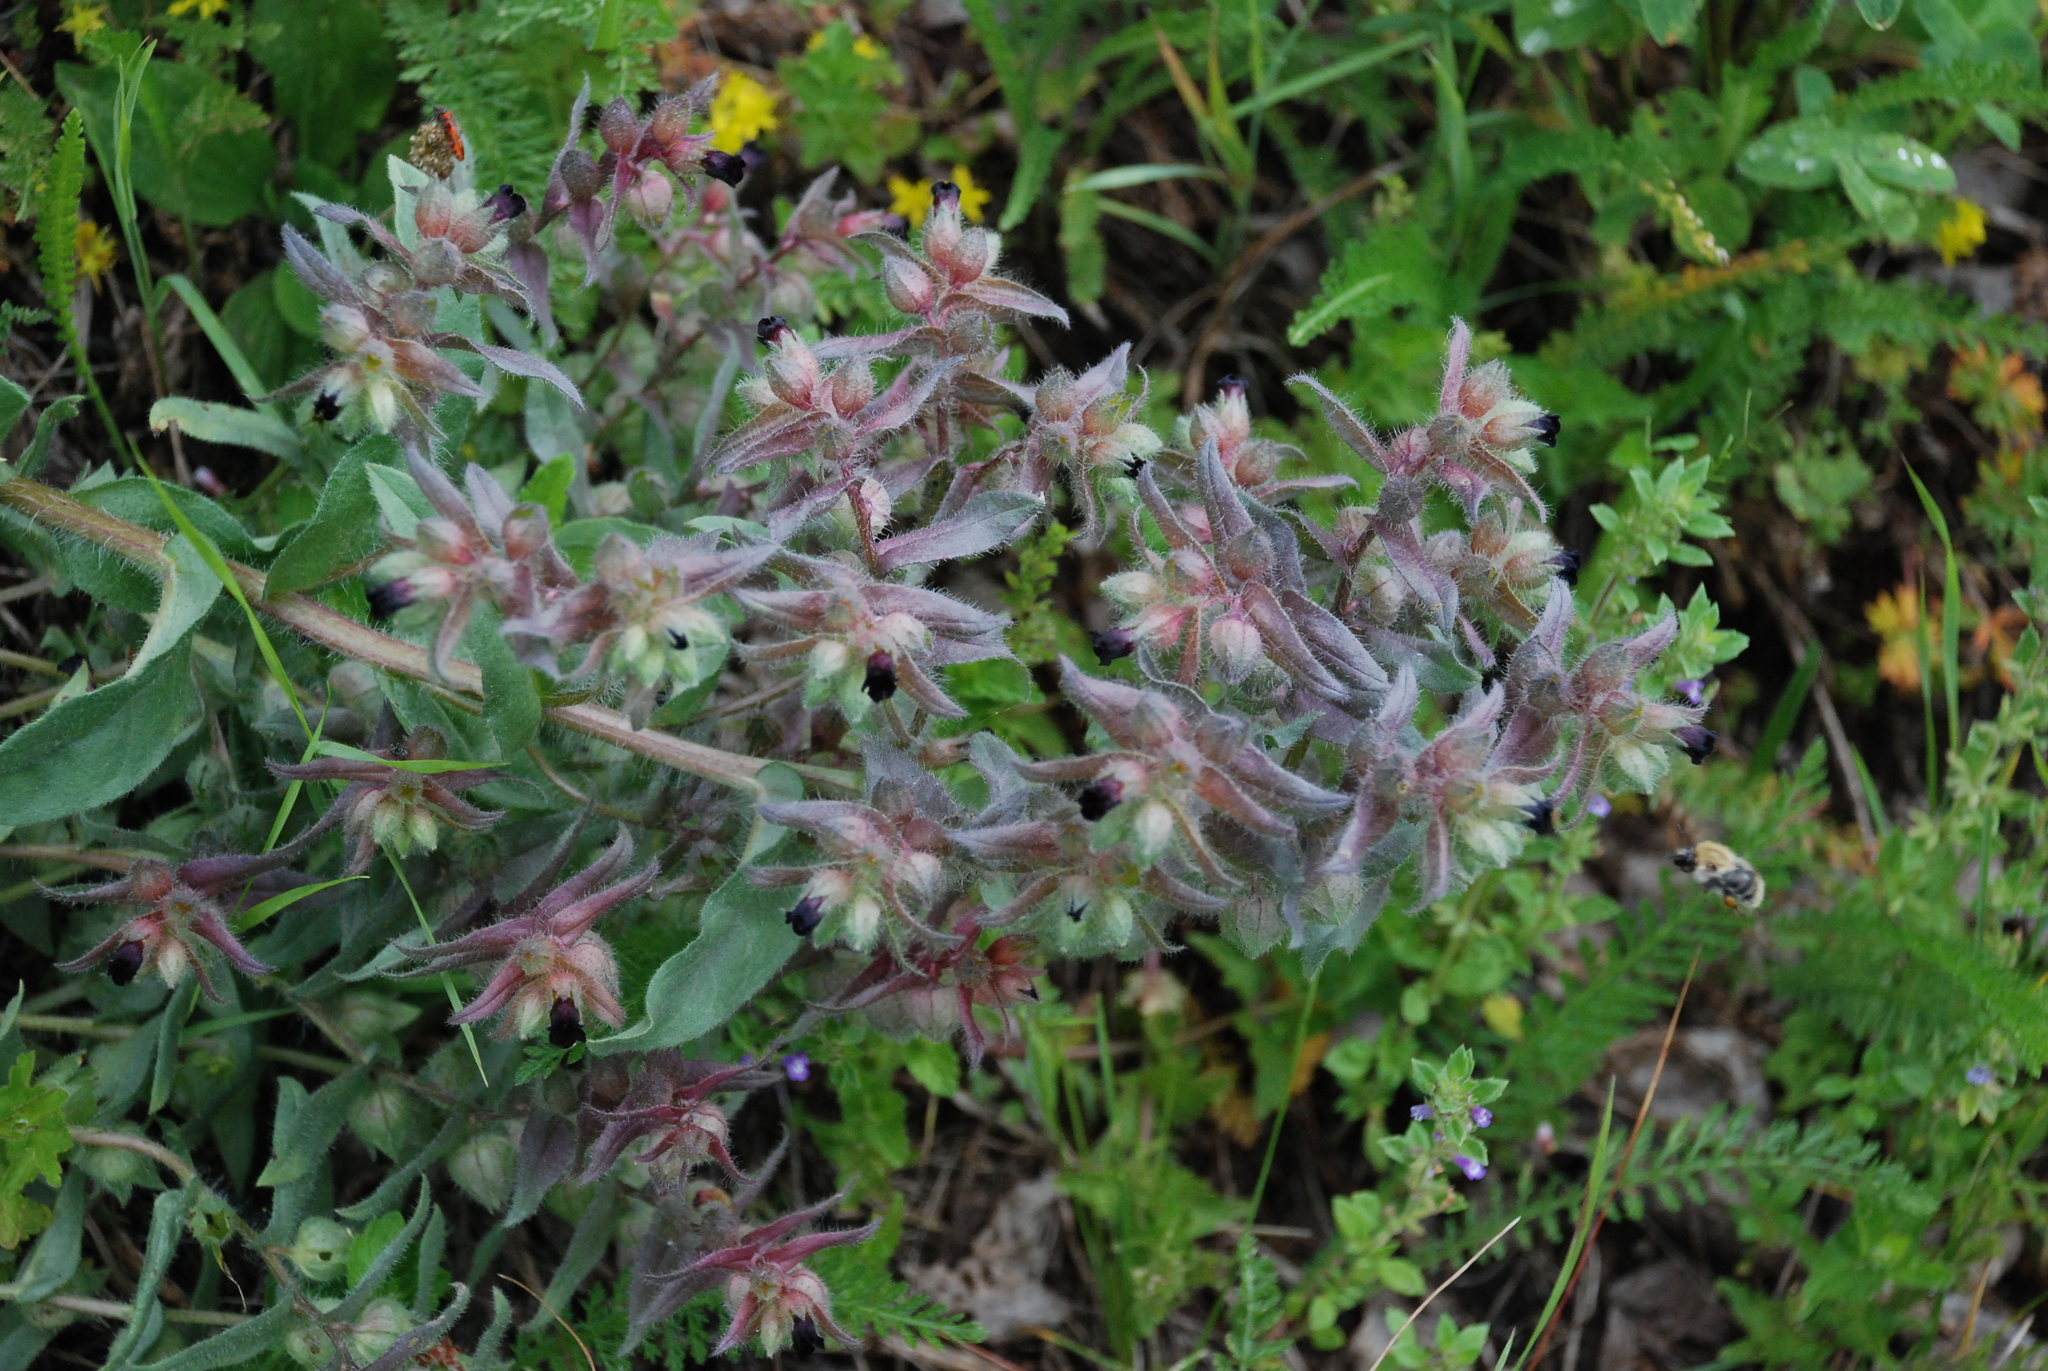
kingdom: Plantae
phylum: Tracheophyta
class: Magnoliopsida
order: Boraginales
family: Boraginaceae
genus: Nonea
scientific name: Nonea pulla
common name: Brown nonea
